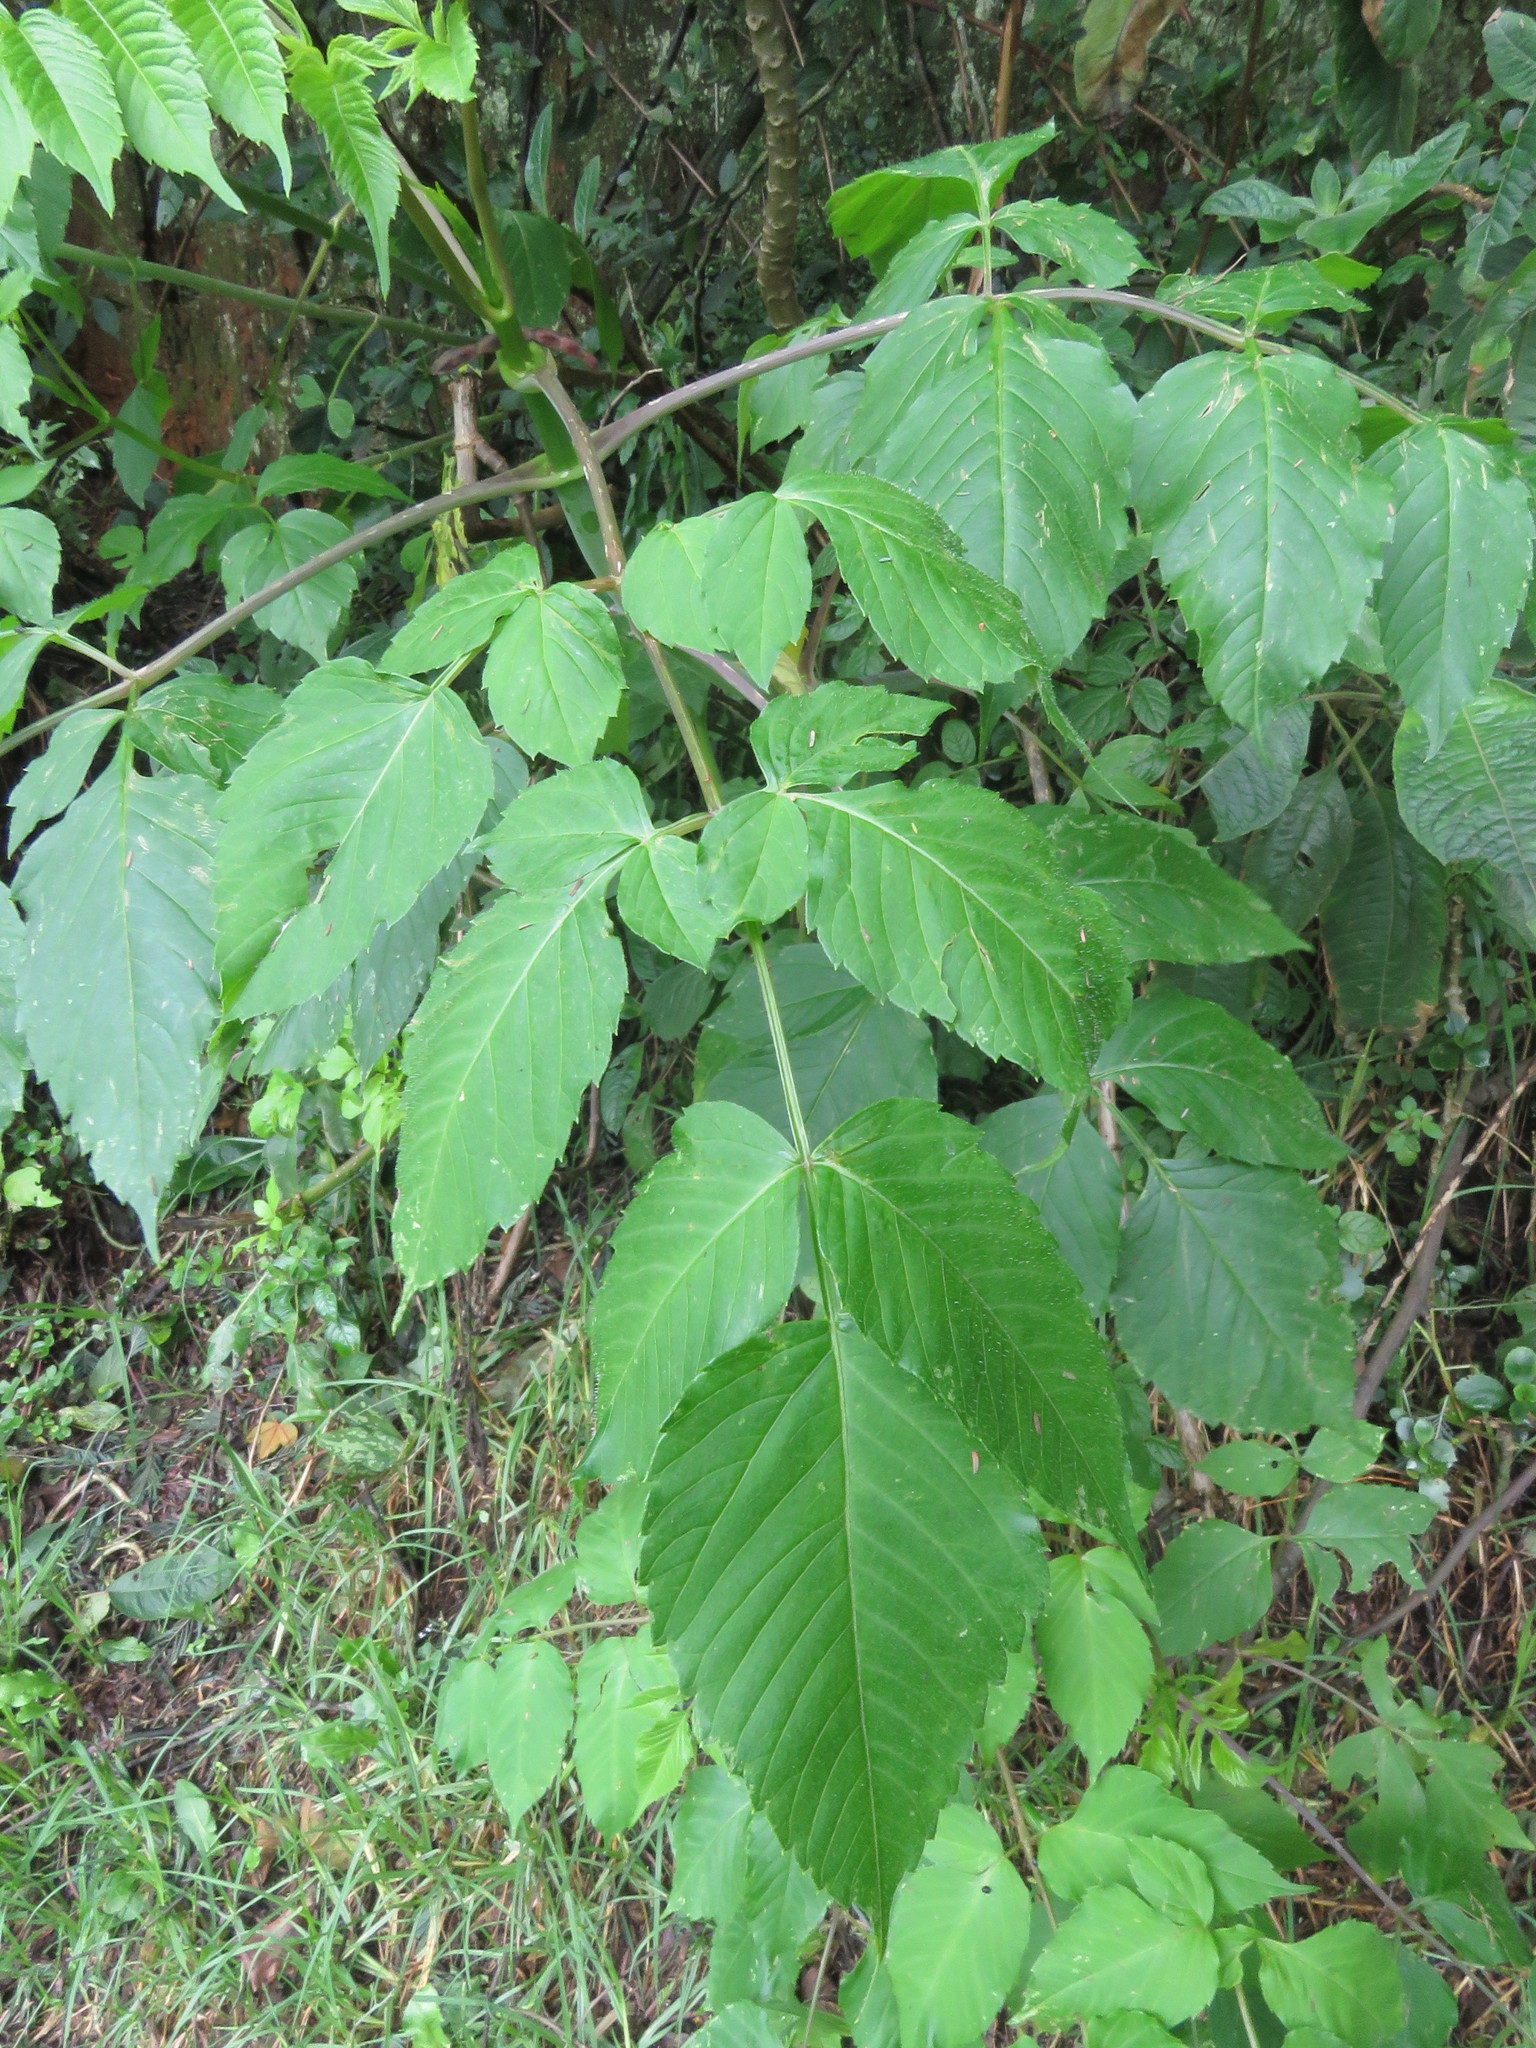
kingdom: Plantae
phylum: Tracheophyta
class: Magnoliopsida
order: Asterales
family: Asteraceae
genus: Dahlia
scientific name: Dahlia imperialis
